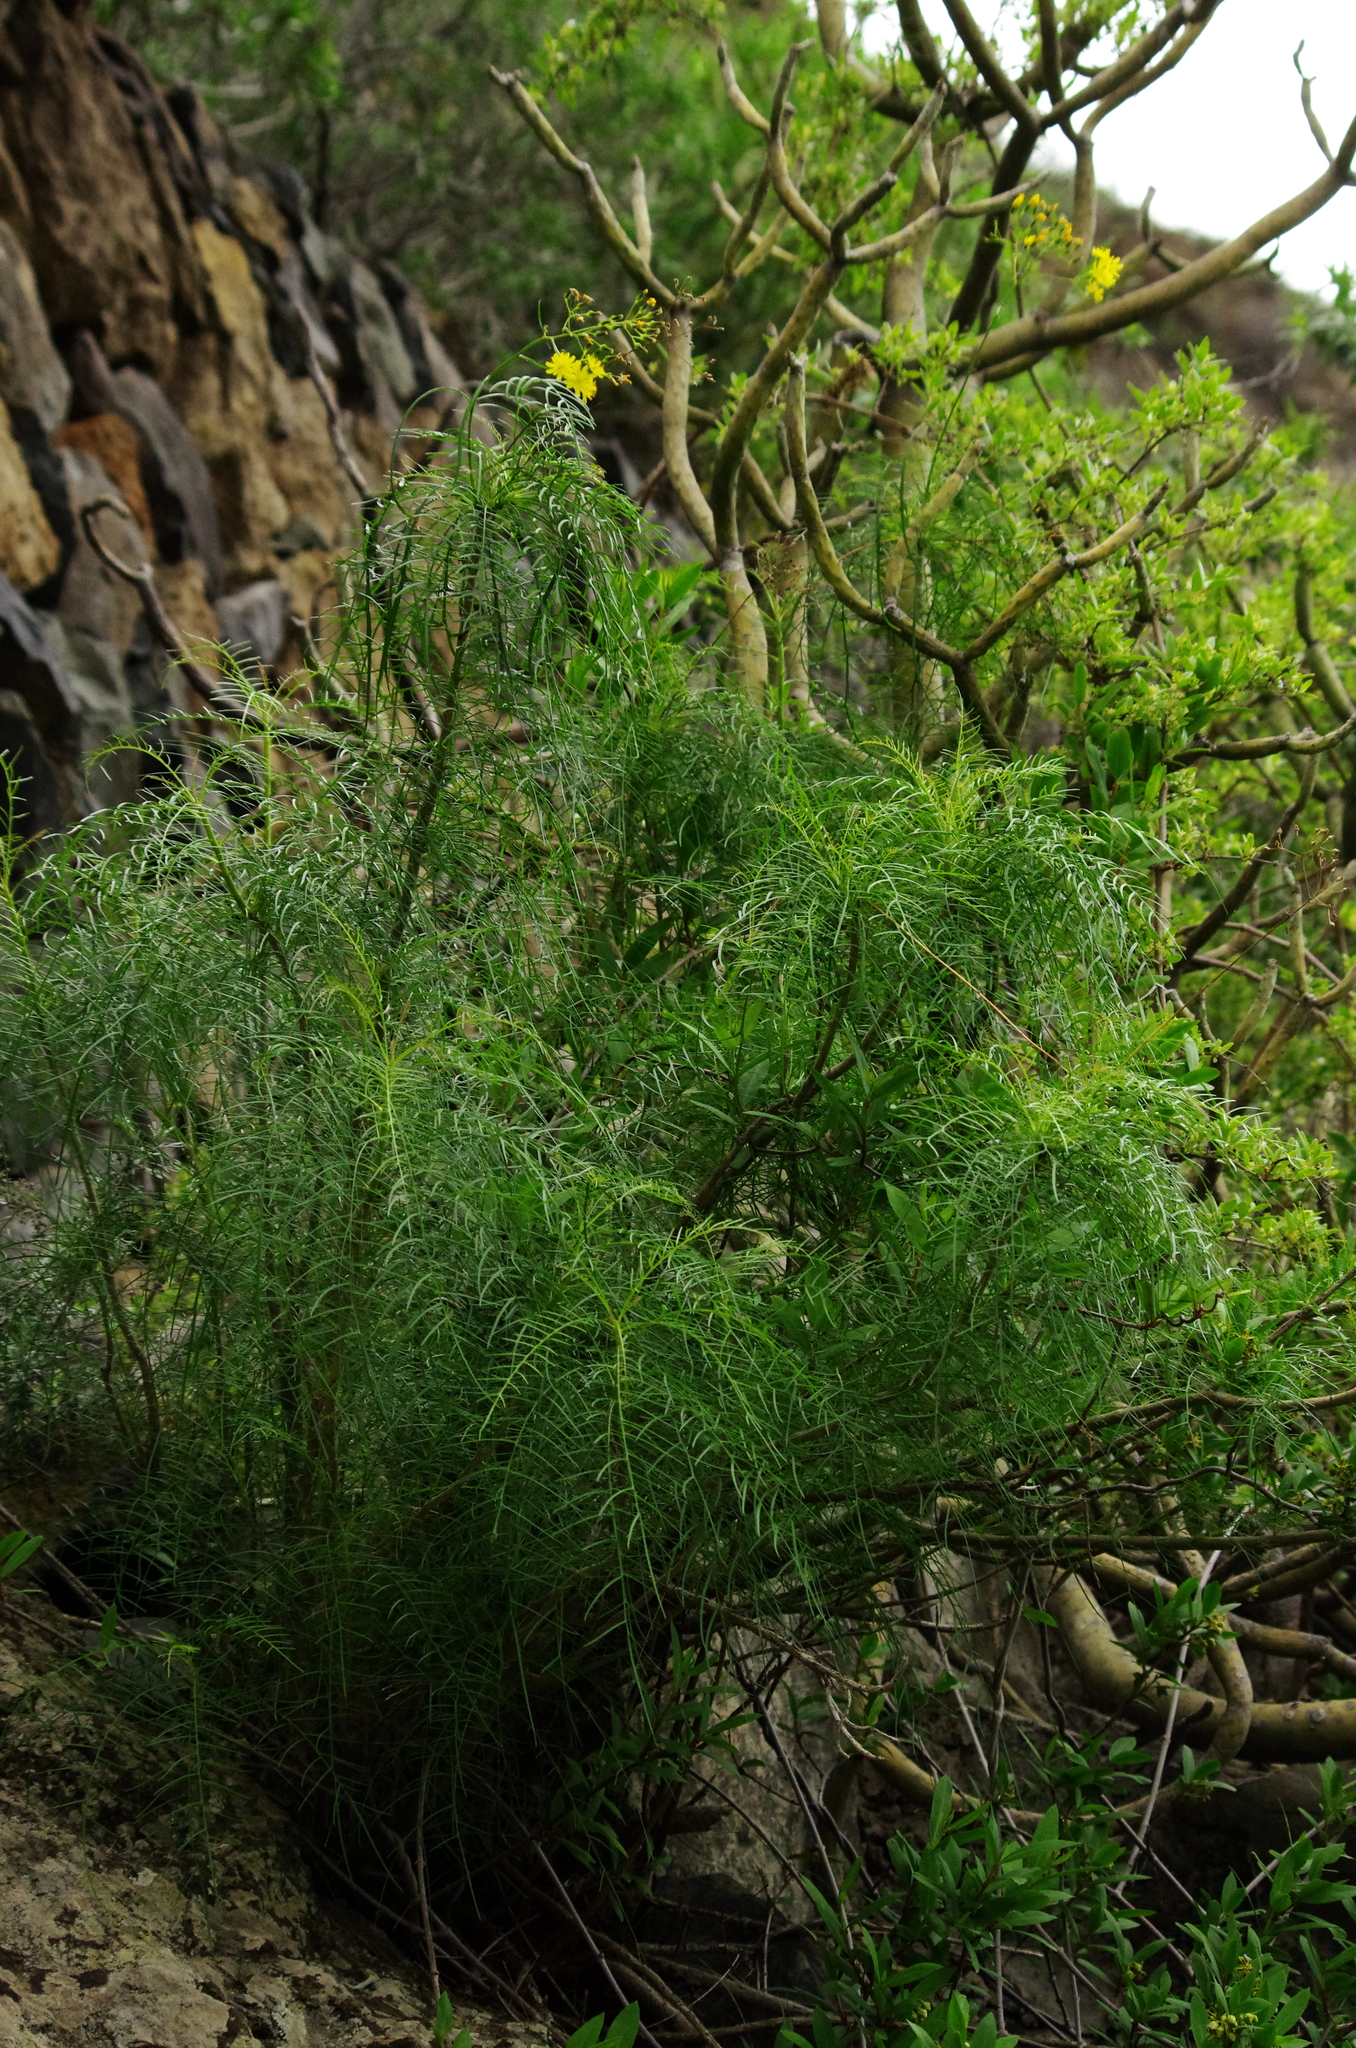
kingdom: Plantae
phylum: Tracheophyta
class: Magnoliopsida
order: Asterales
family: Asteraceae
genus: Sonchus
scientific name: Sonchus leptocephalus
